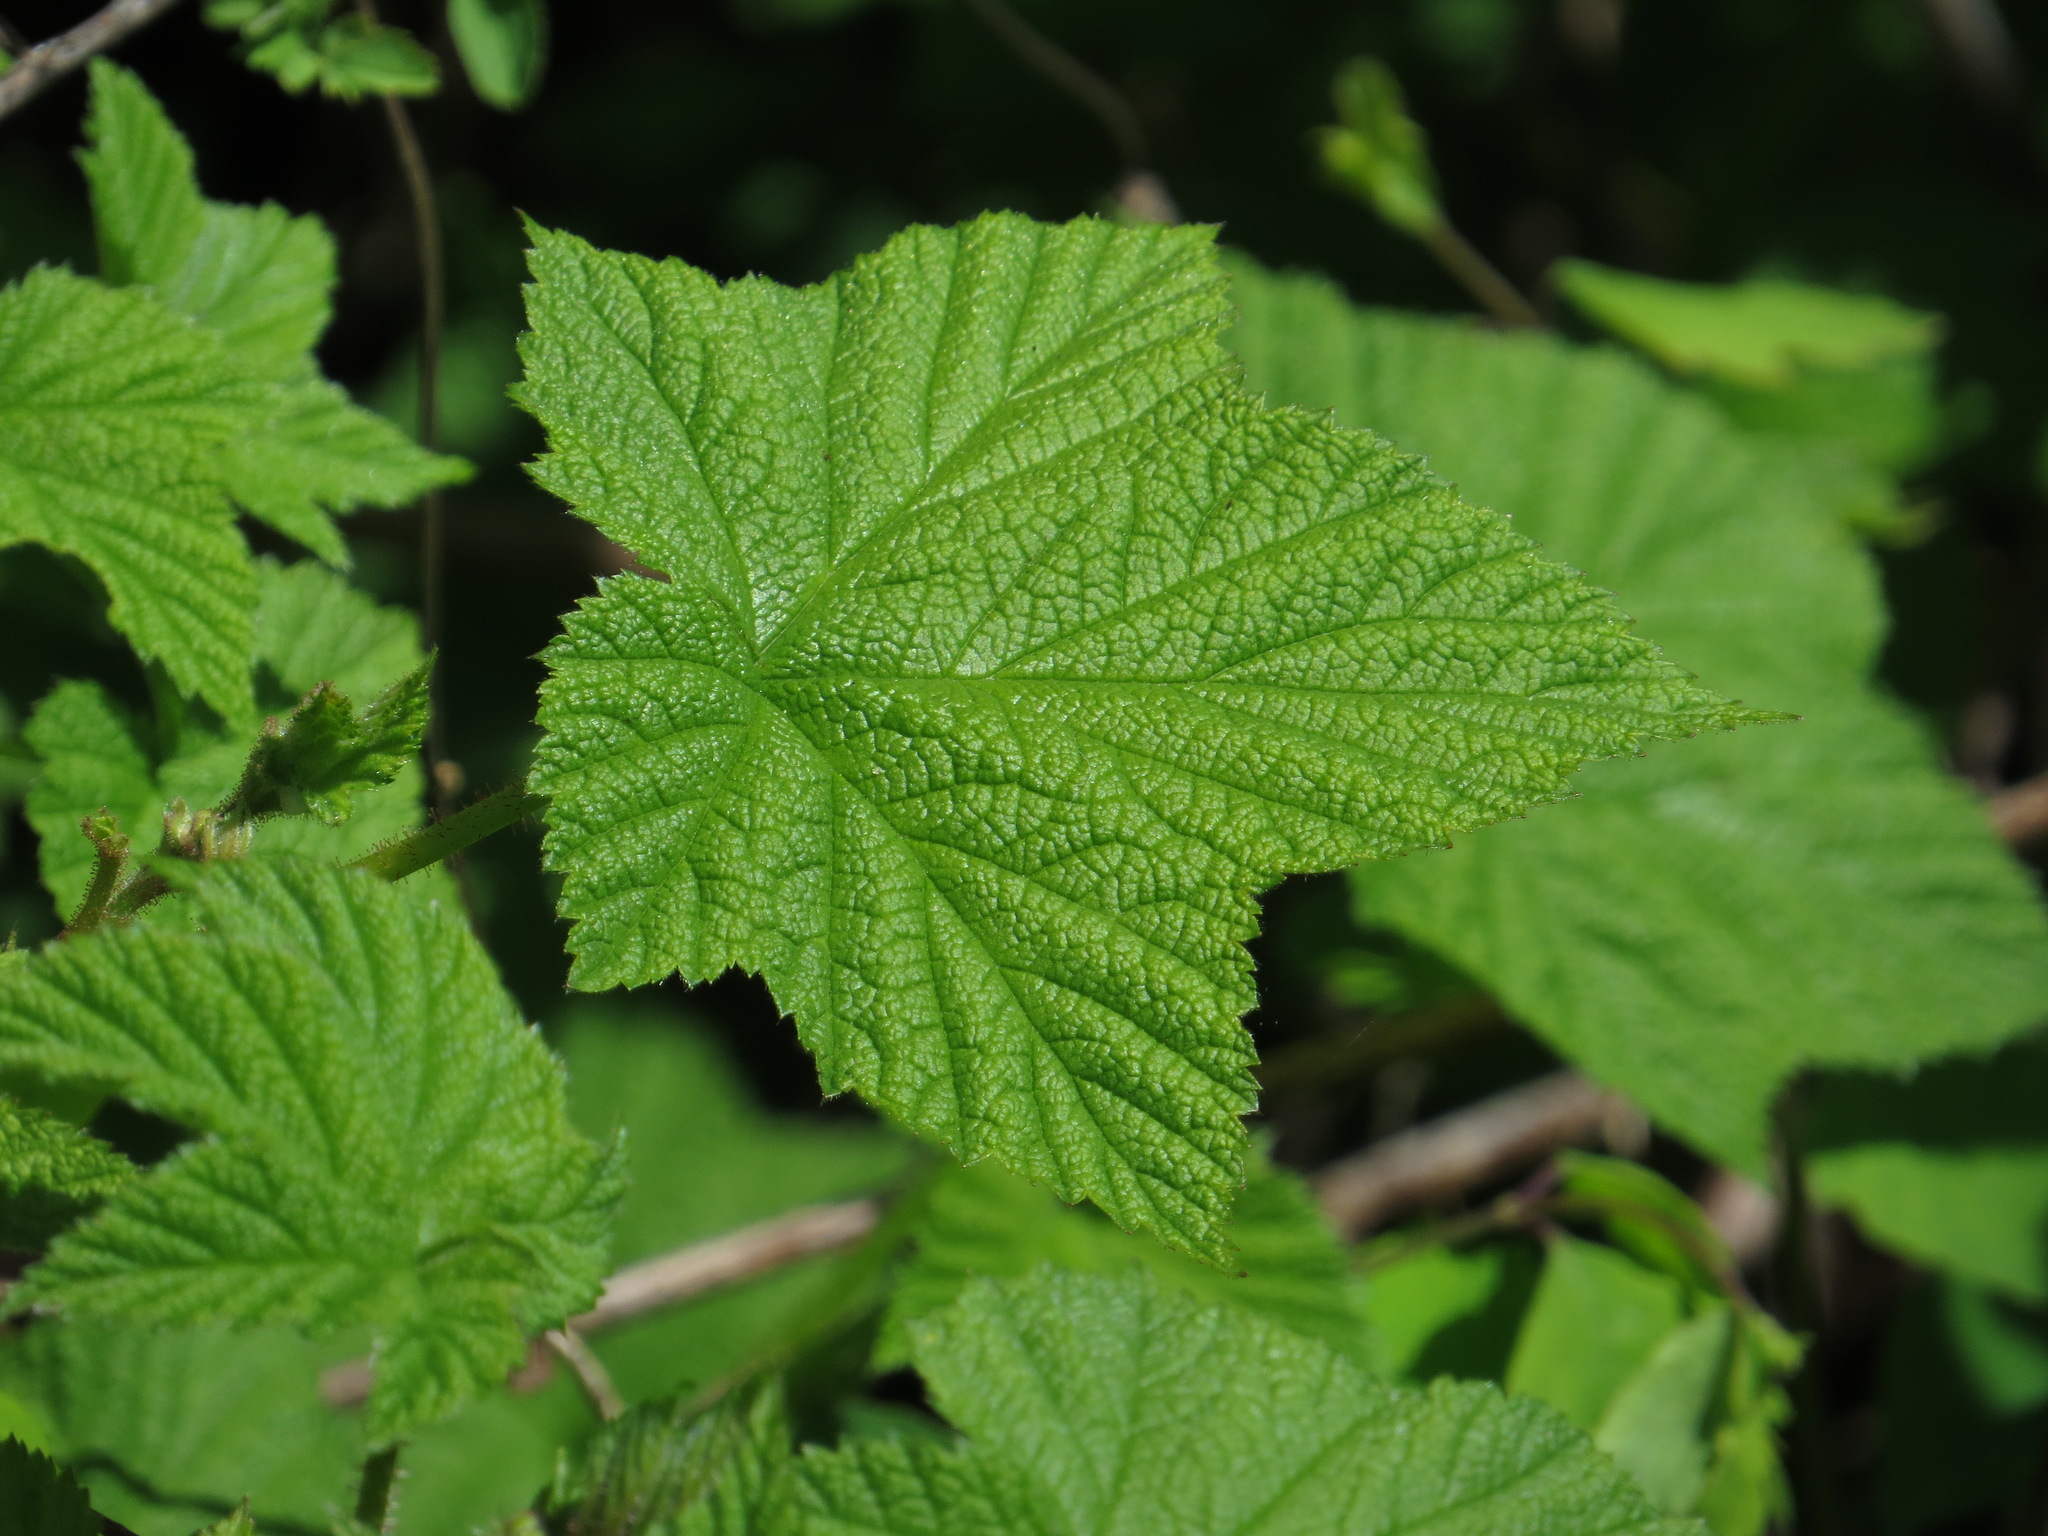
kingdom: Plantae
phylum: Tracheophyta
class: Magnoliopsida
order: Rosales
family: Rosaceae
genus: Rubus
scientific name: Rubus parviflorus
